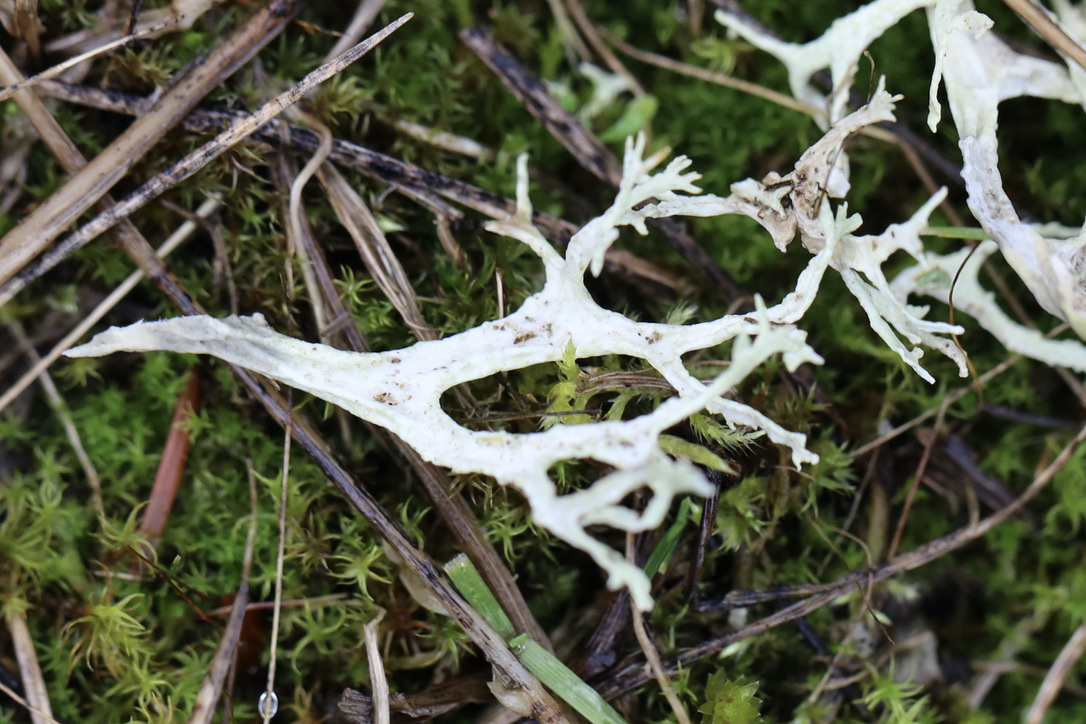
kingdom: Fungi
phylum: Ascomycota
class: Lecanoromycetes
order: Lecanorales
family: Parmeliaceae
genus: Evernia
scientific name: Evernia prunastri
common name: Oak moss
